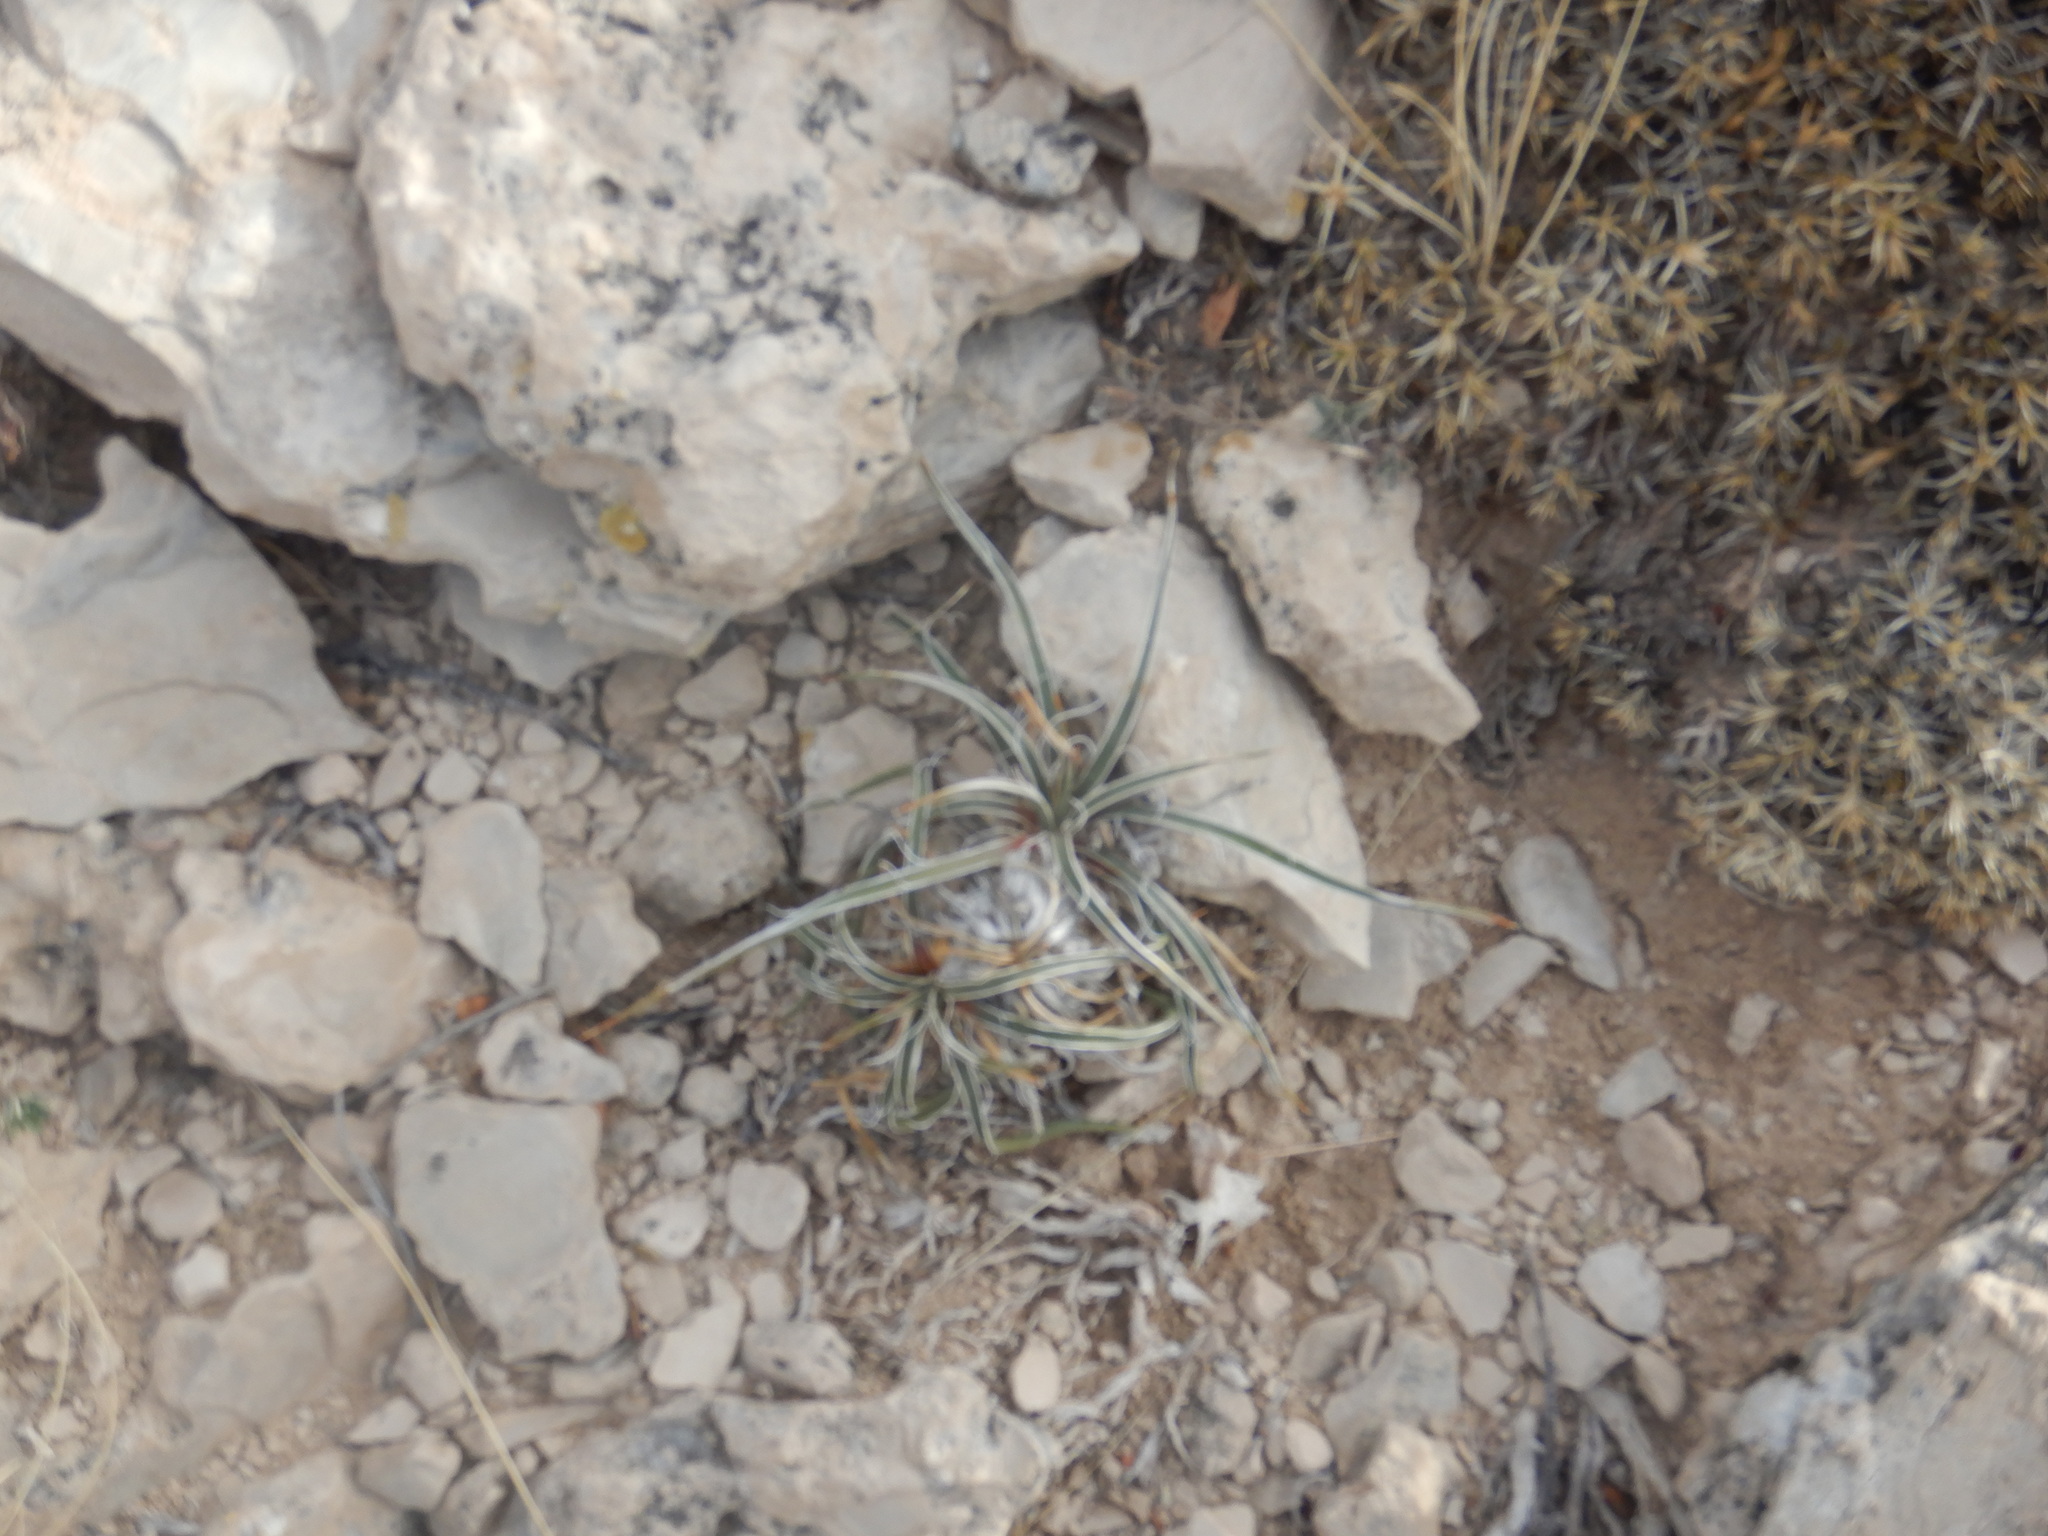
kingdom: Plantae
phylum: Tracheophyta
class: Liliopsida
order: Asparagales
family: Asparagaceae
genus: Yucca
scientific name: Yucca glauca
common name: Great plains yucca
